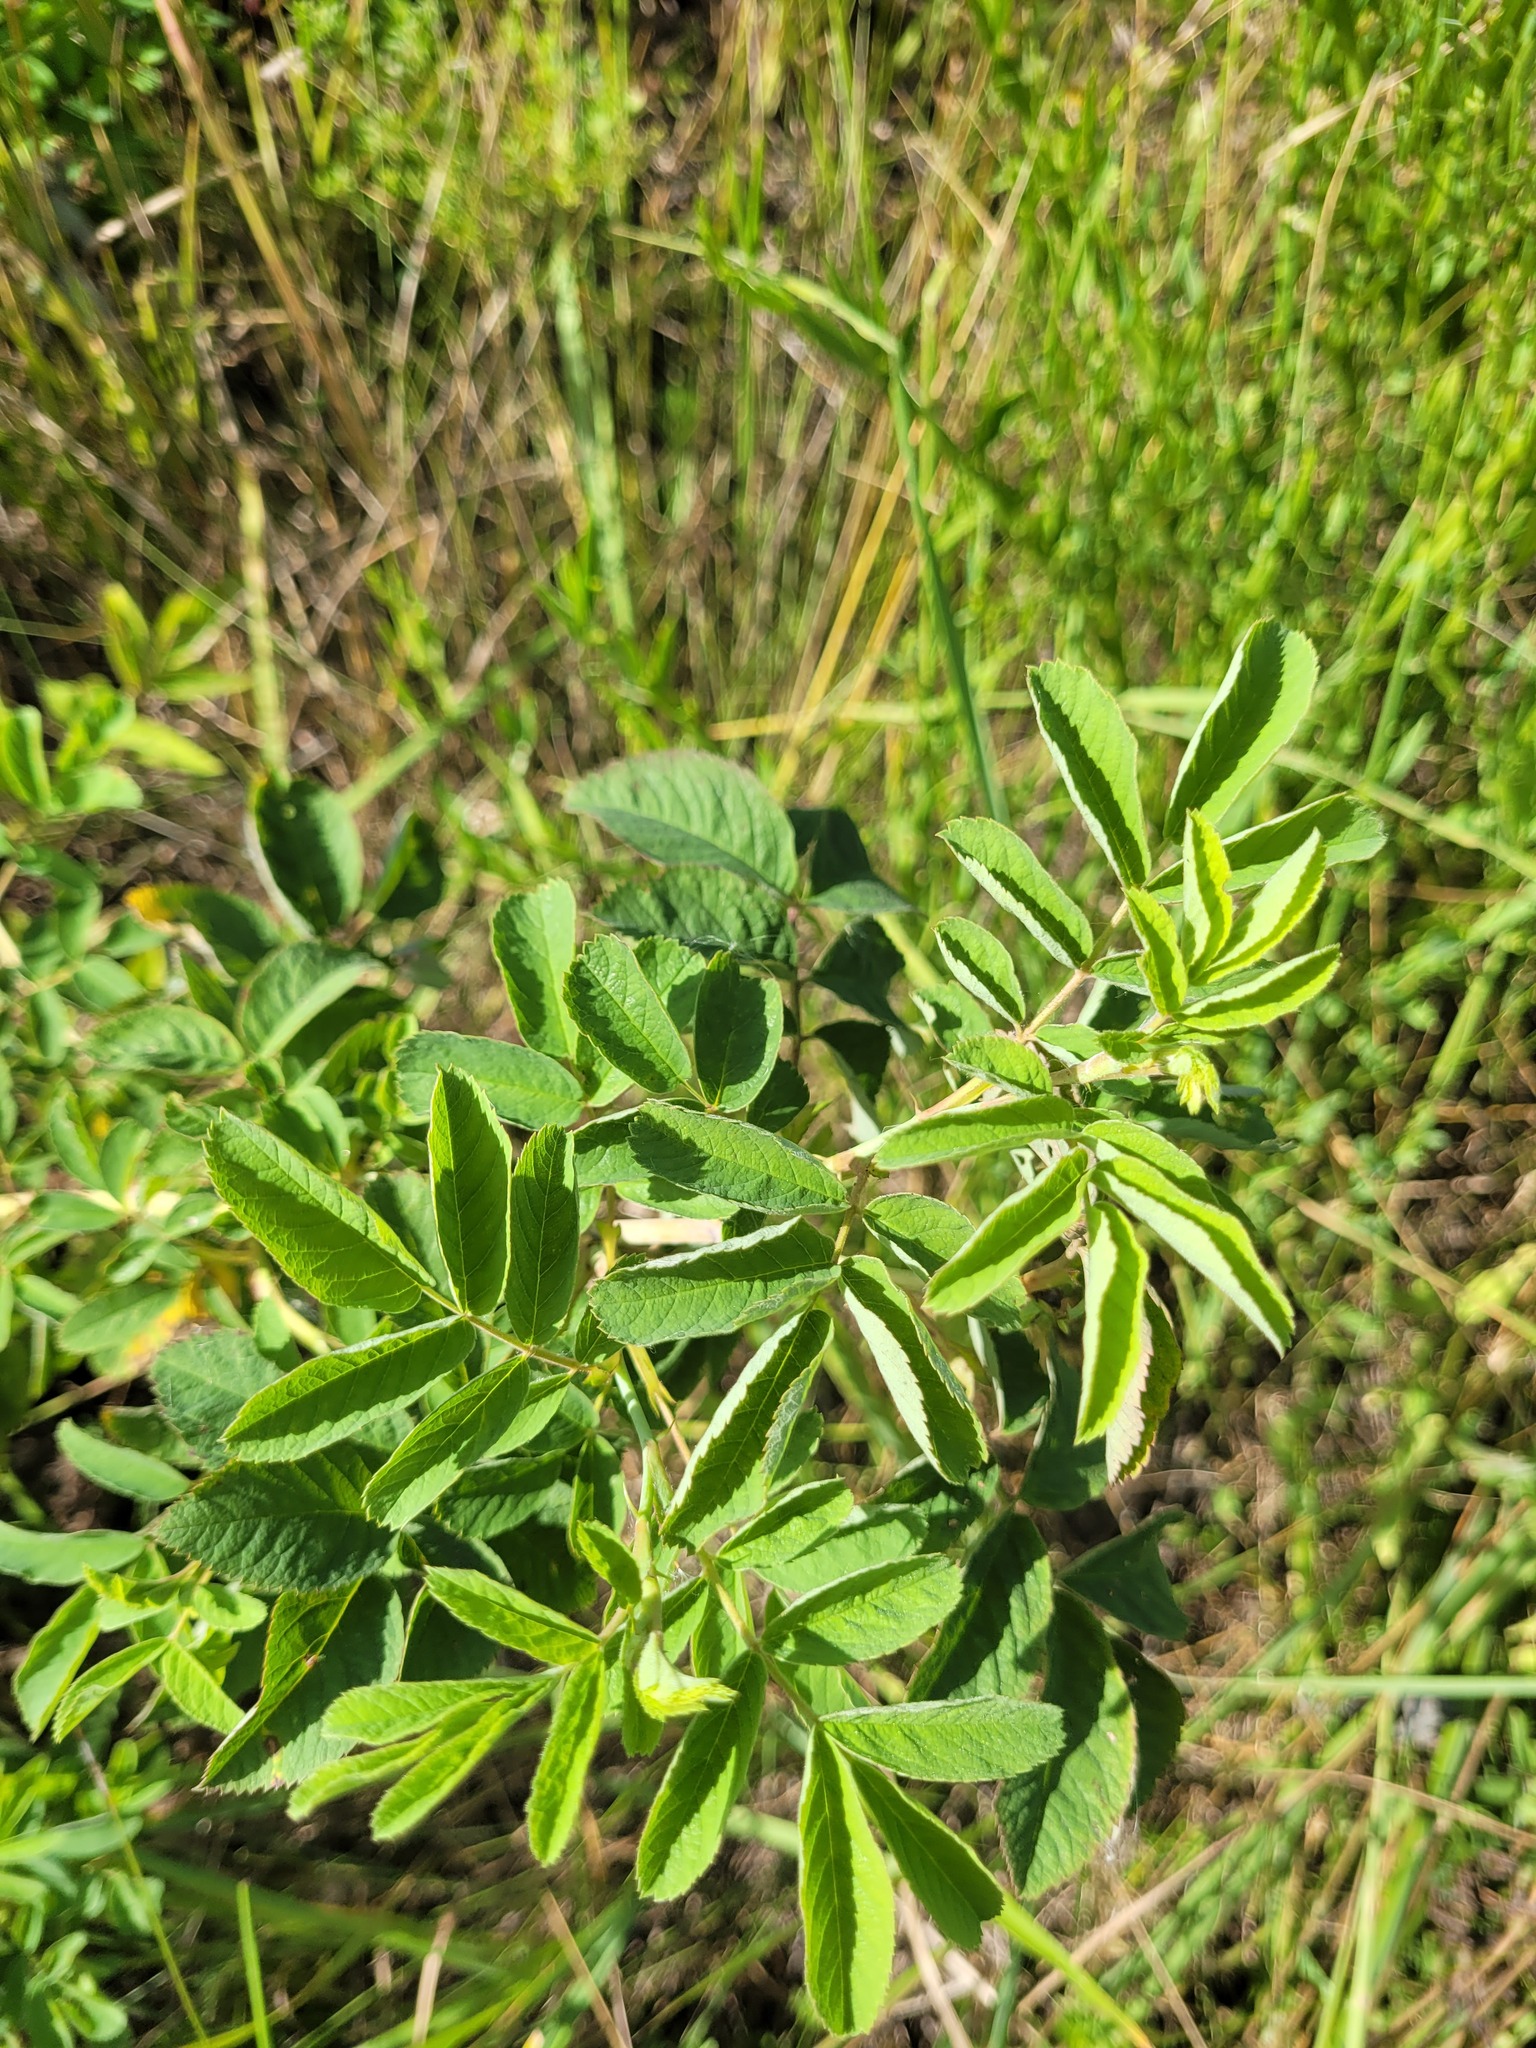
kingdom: Plantae
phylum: Tracheophyta
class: Magnoliopsida
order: Rosales
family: Rosaceae
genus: Rosa
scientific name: Rosa majalis
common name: Cinnamon rose
